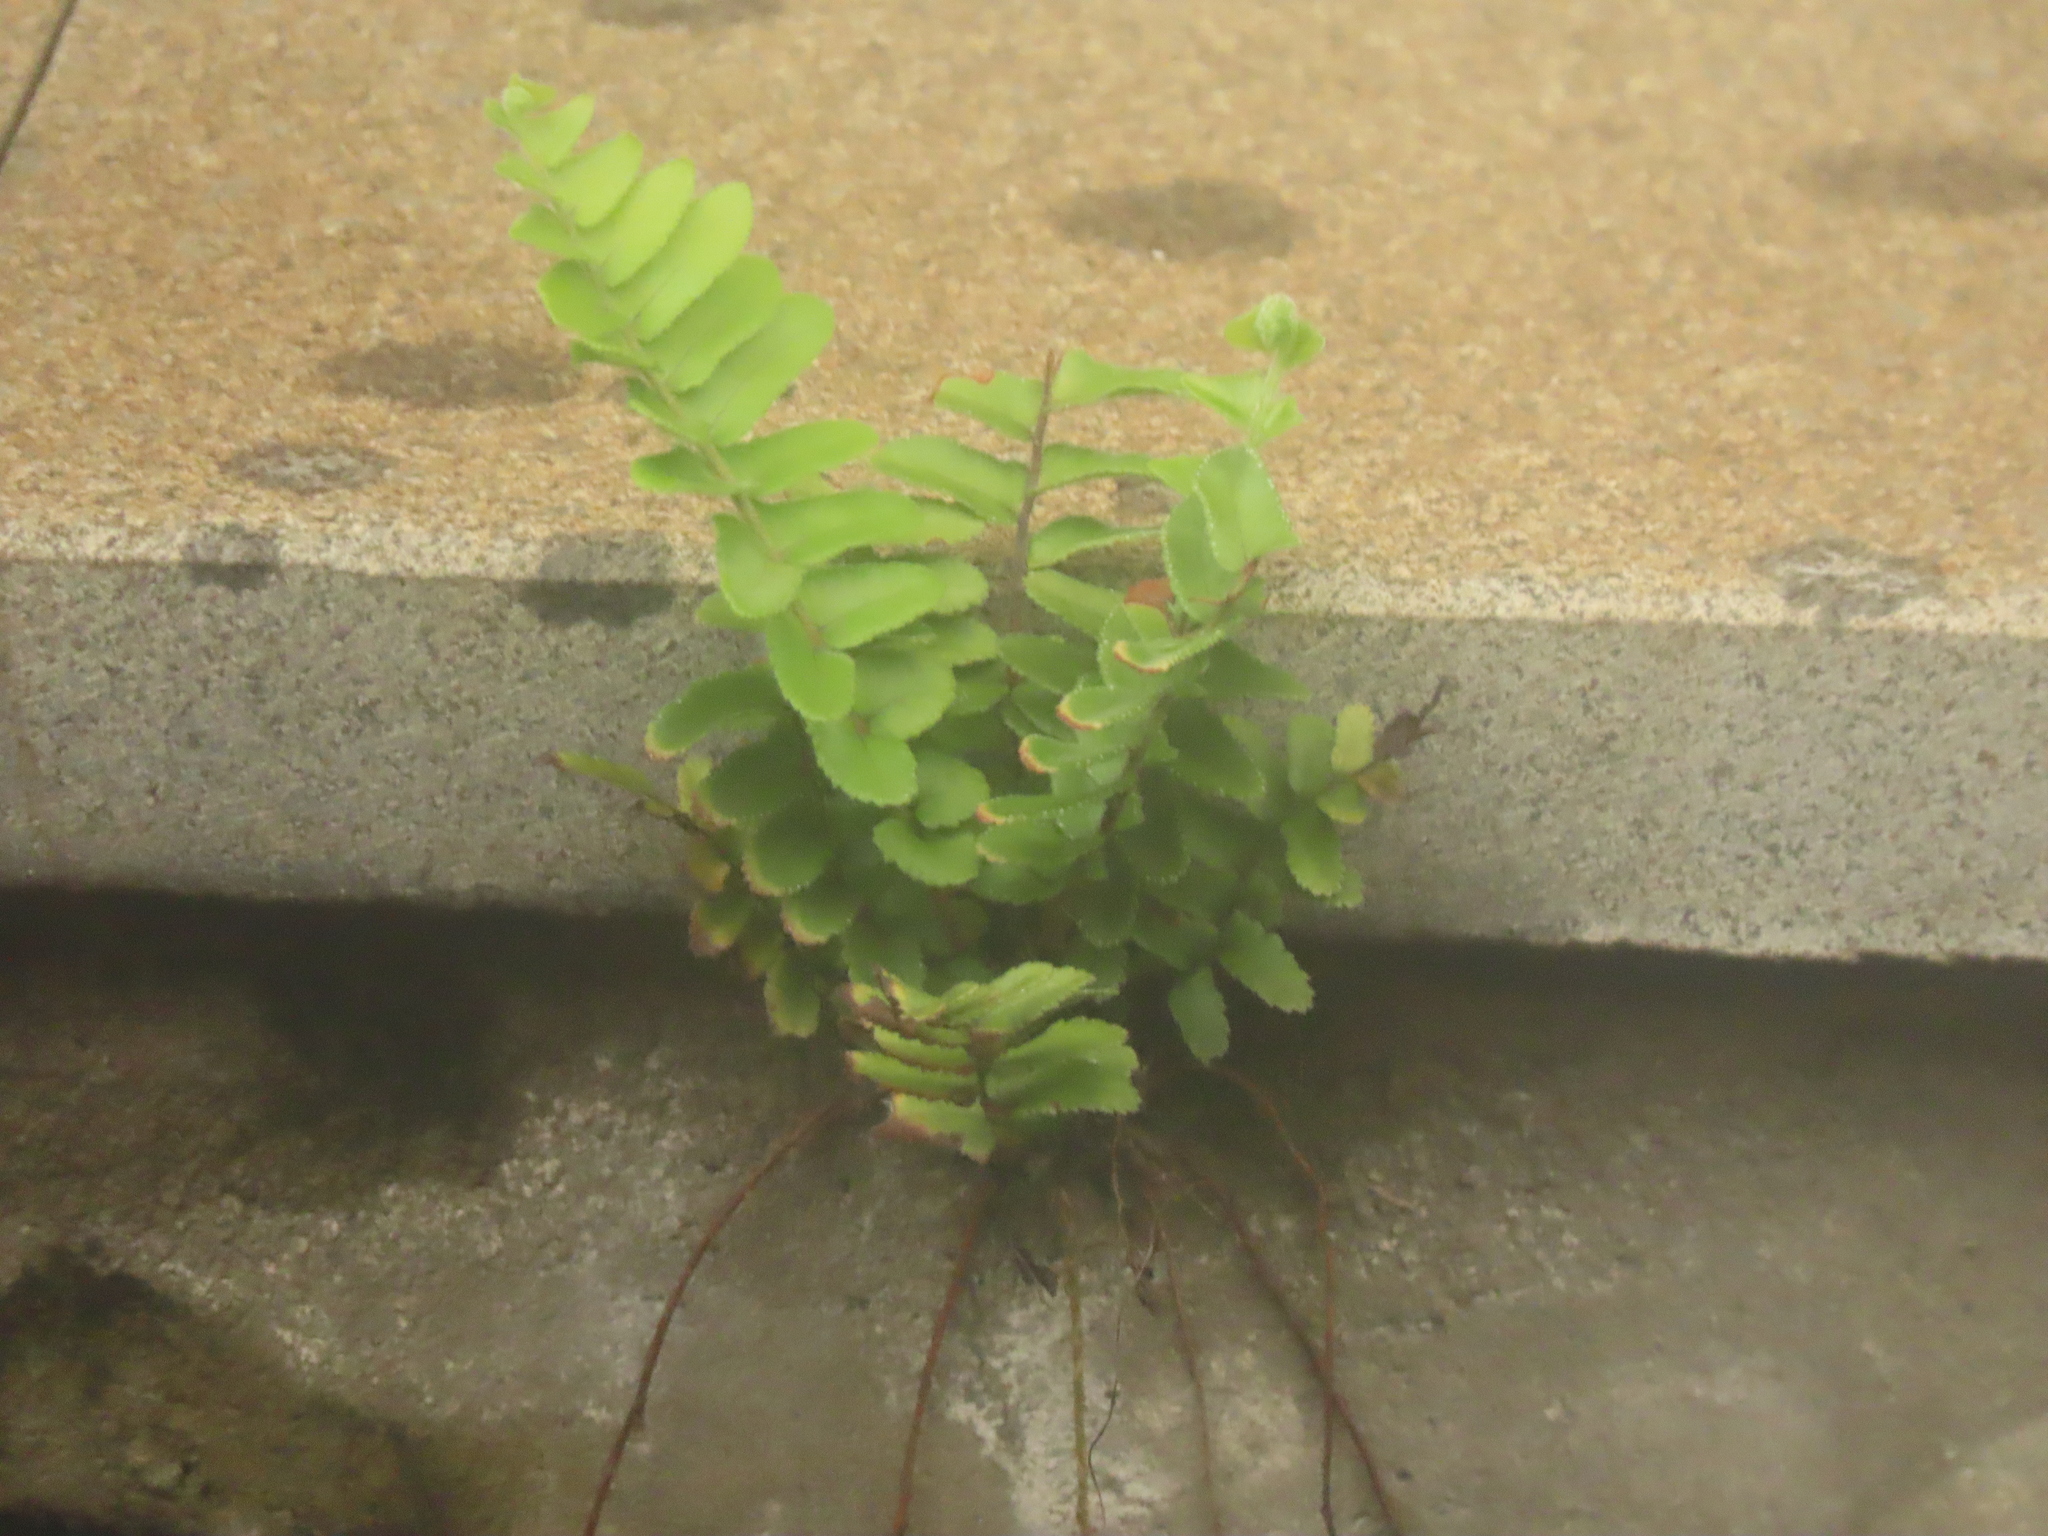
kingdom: Plantae
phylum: Tracheophyta
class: Polypodiopsida
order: Polypodiales
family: Nephrolepidaceae
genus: Nephrolepis
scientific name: Nephrolepis cordifolia
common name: Narrow swordfern
